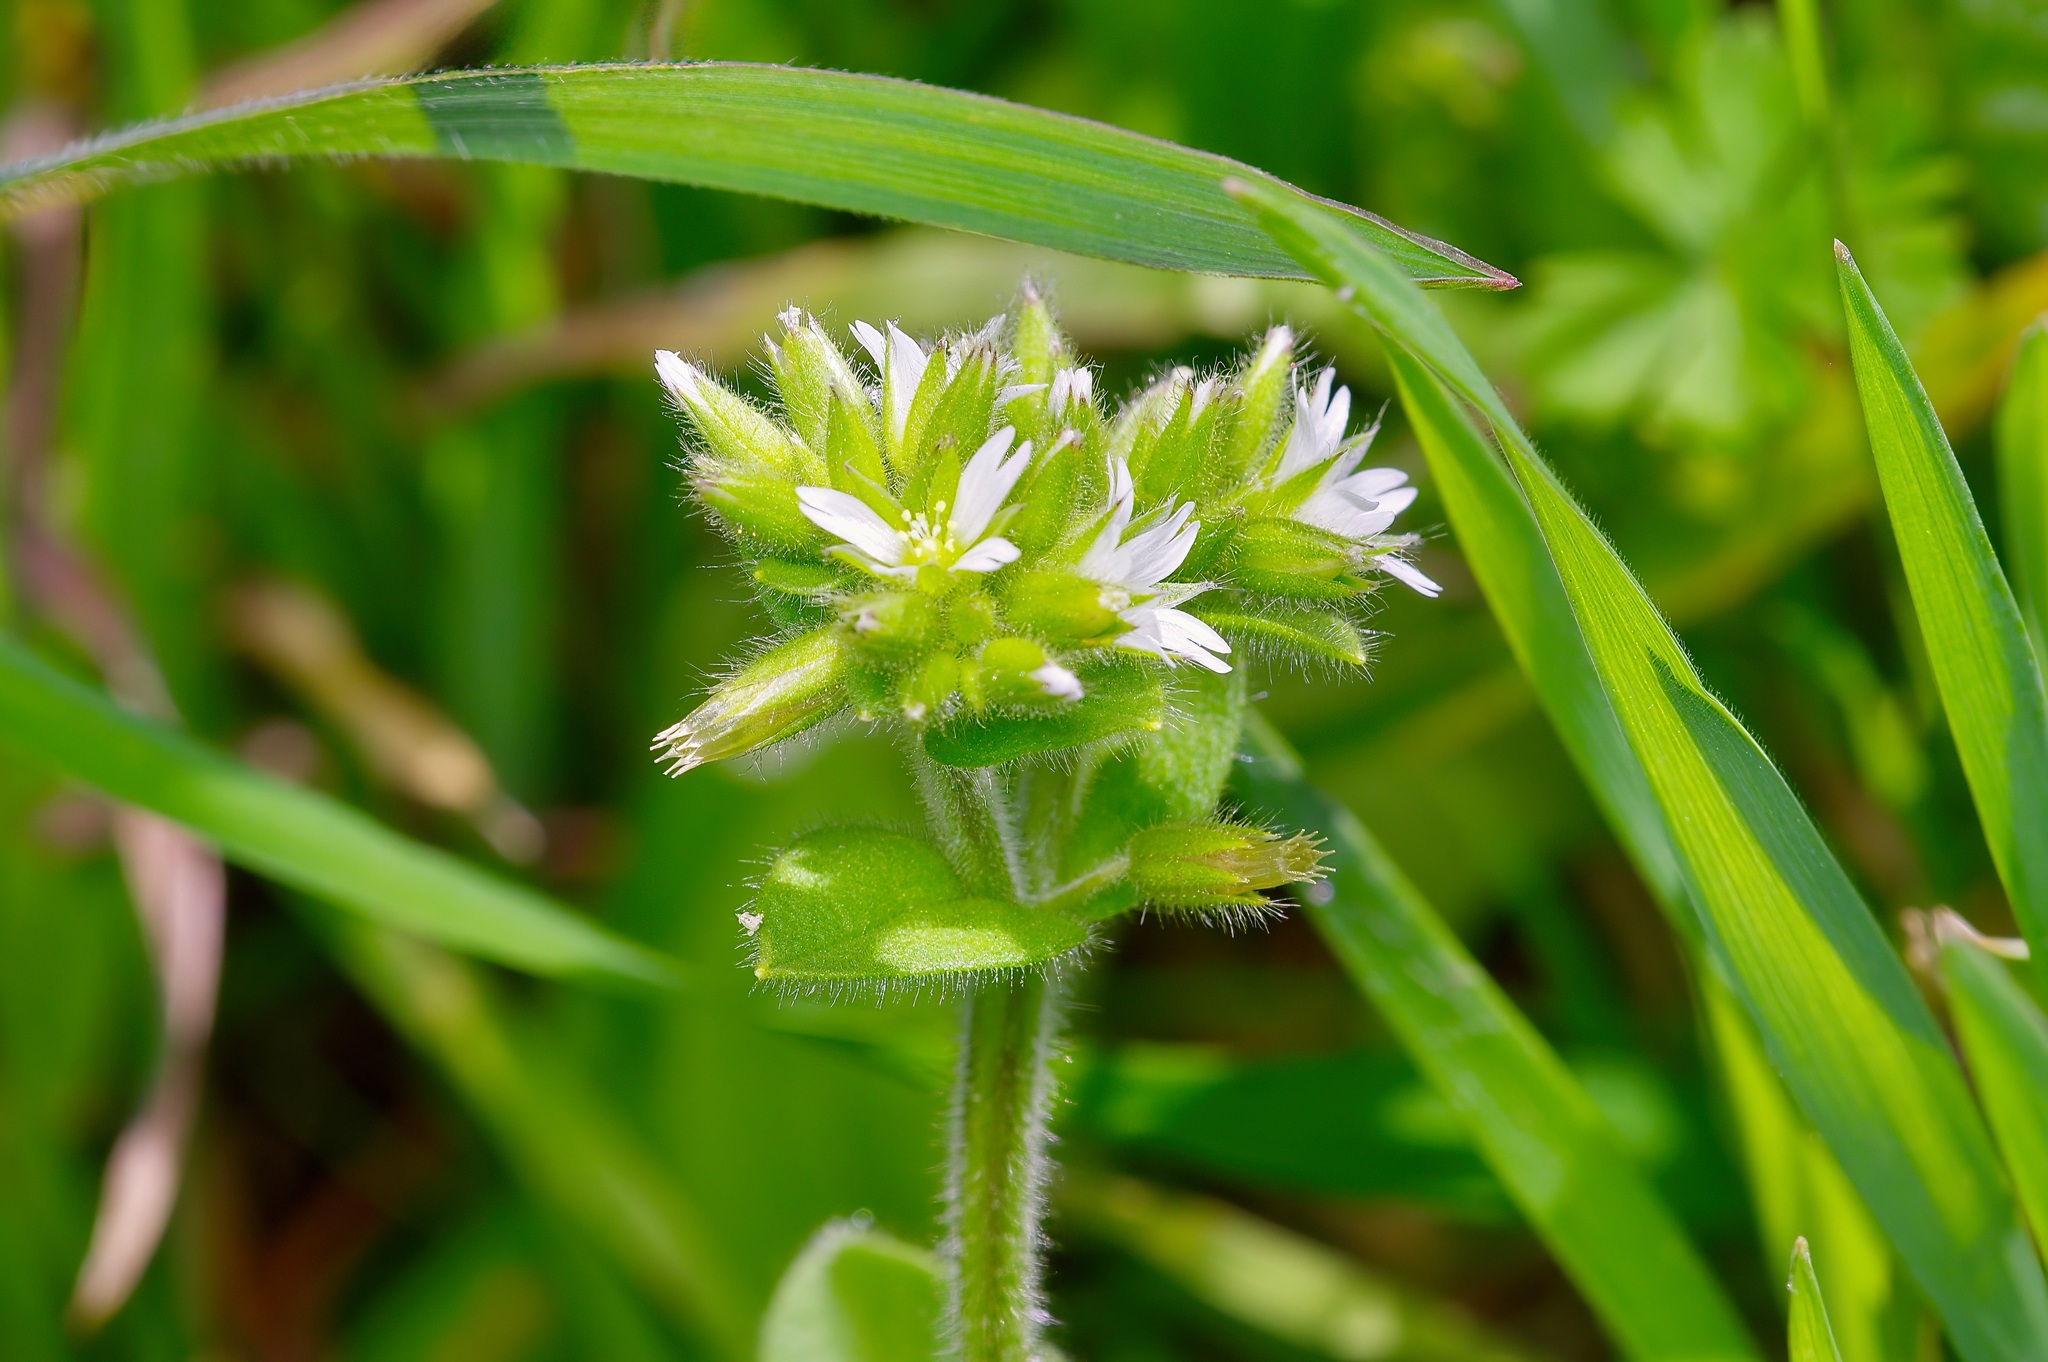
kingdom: Plantae
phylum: Tracheophyta
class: Magnoliopsida
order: Caryophyllales
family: Caryophyllaceae
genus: Cerastium
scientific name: Cerastium glomeratum
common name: Sticky chickweed
